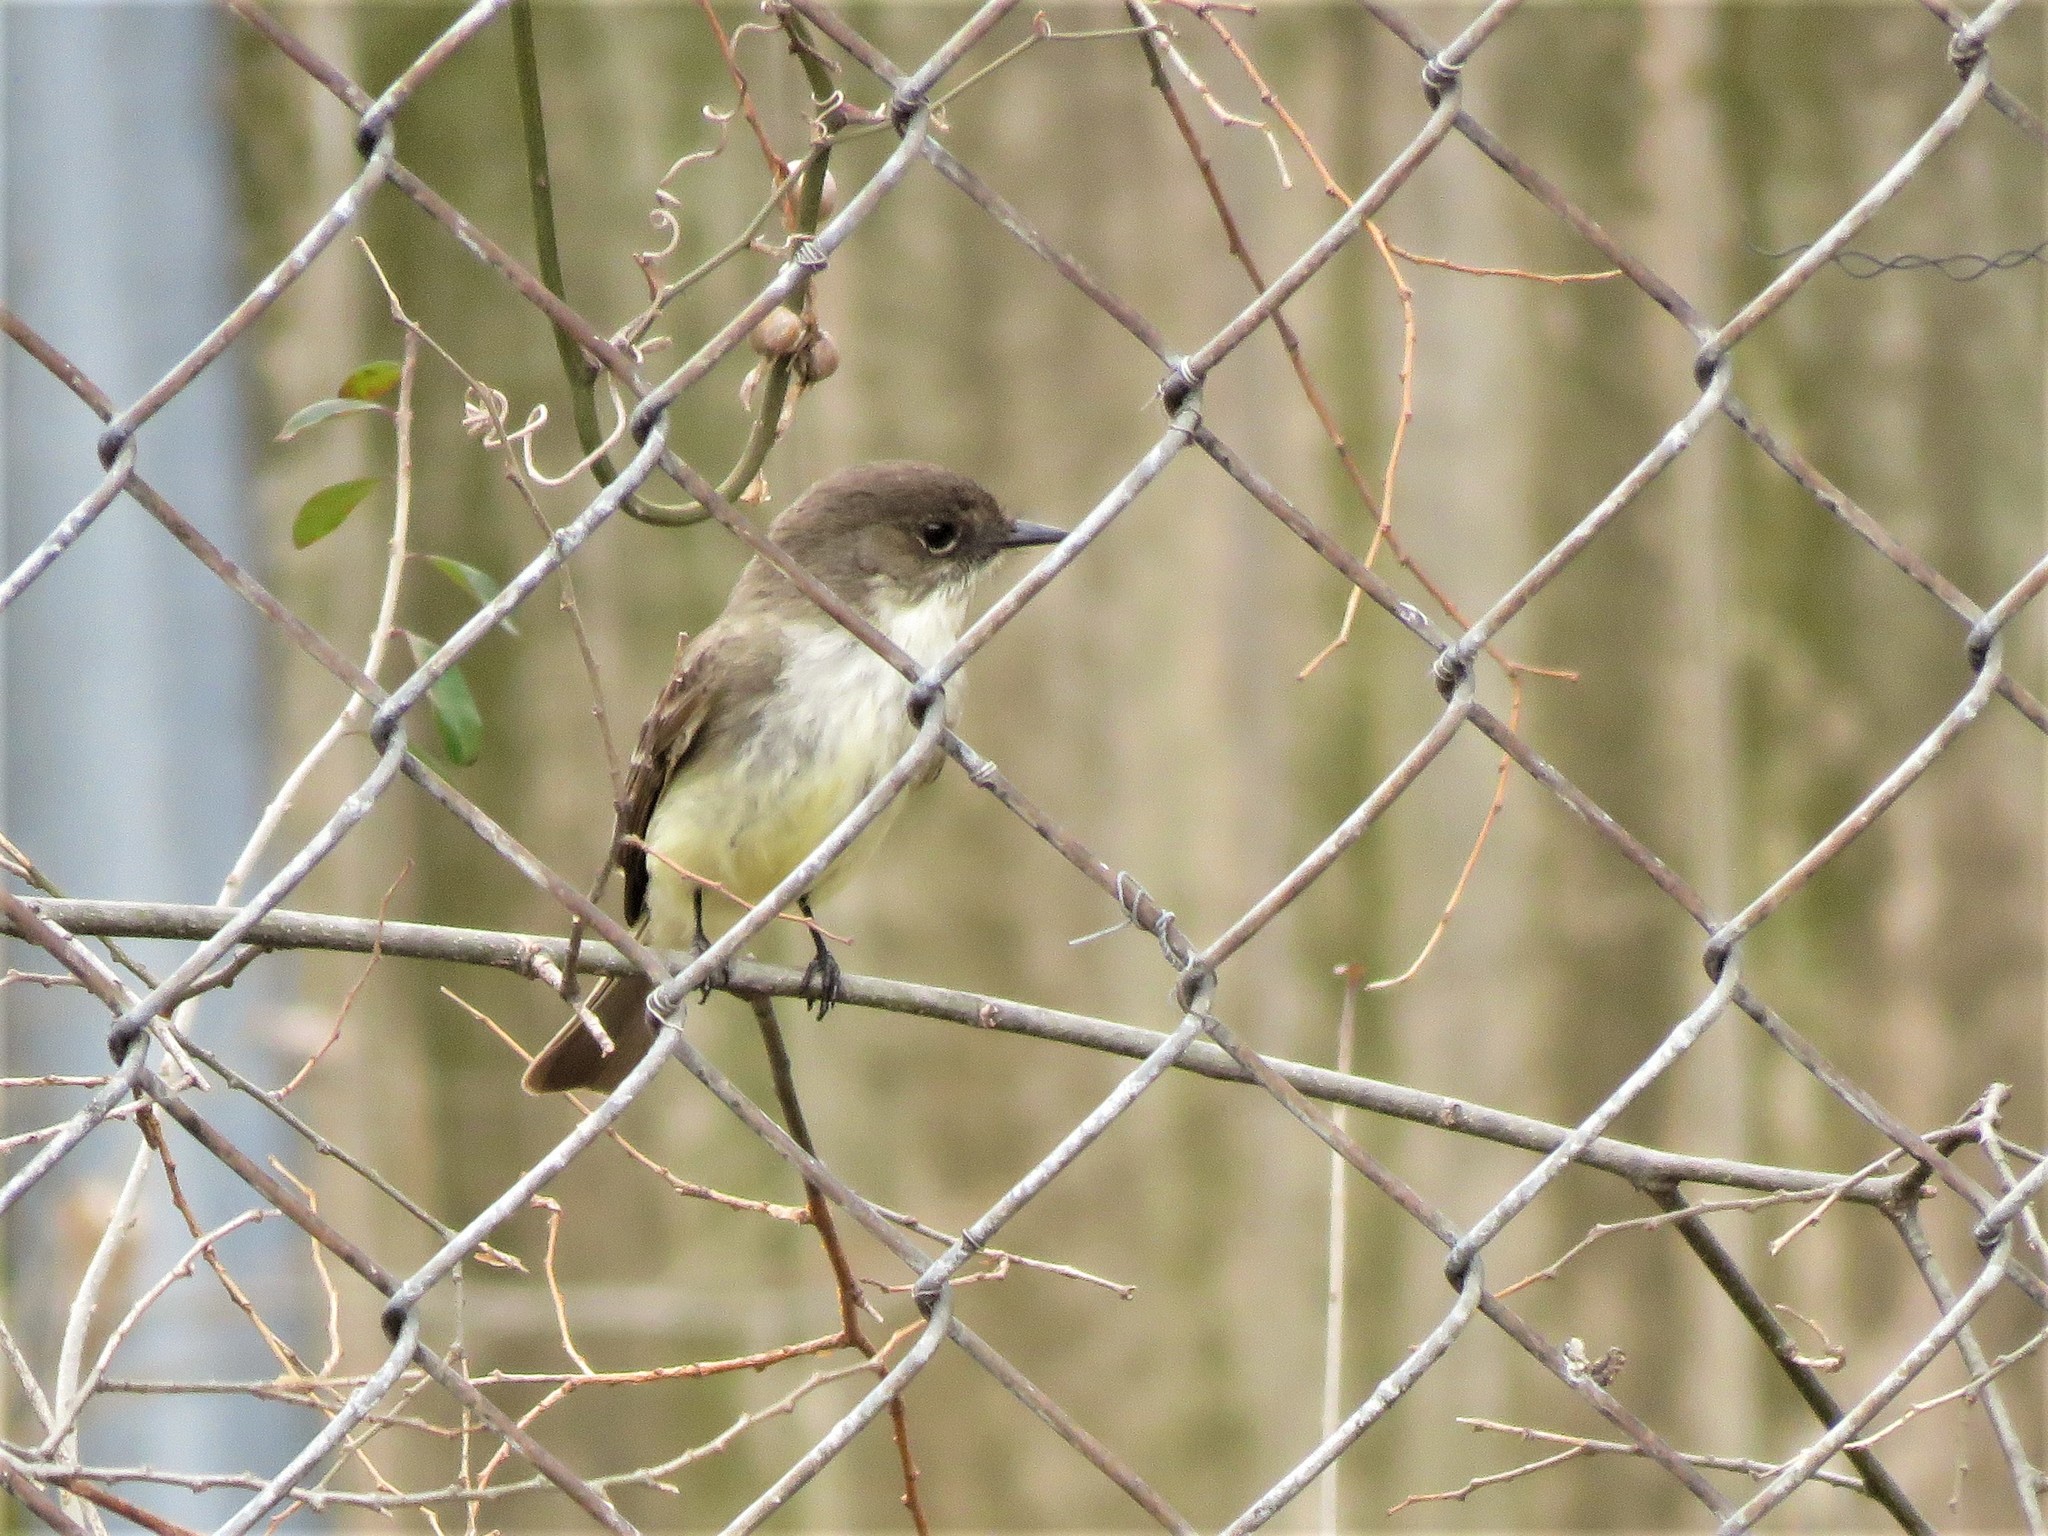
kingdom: Animalia
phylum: Chordata
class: Aves
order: Passeriformes
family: Tyrannidae
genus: Sayornis
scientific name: Sayornis phoebe
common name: Eastern phoebe
